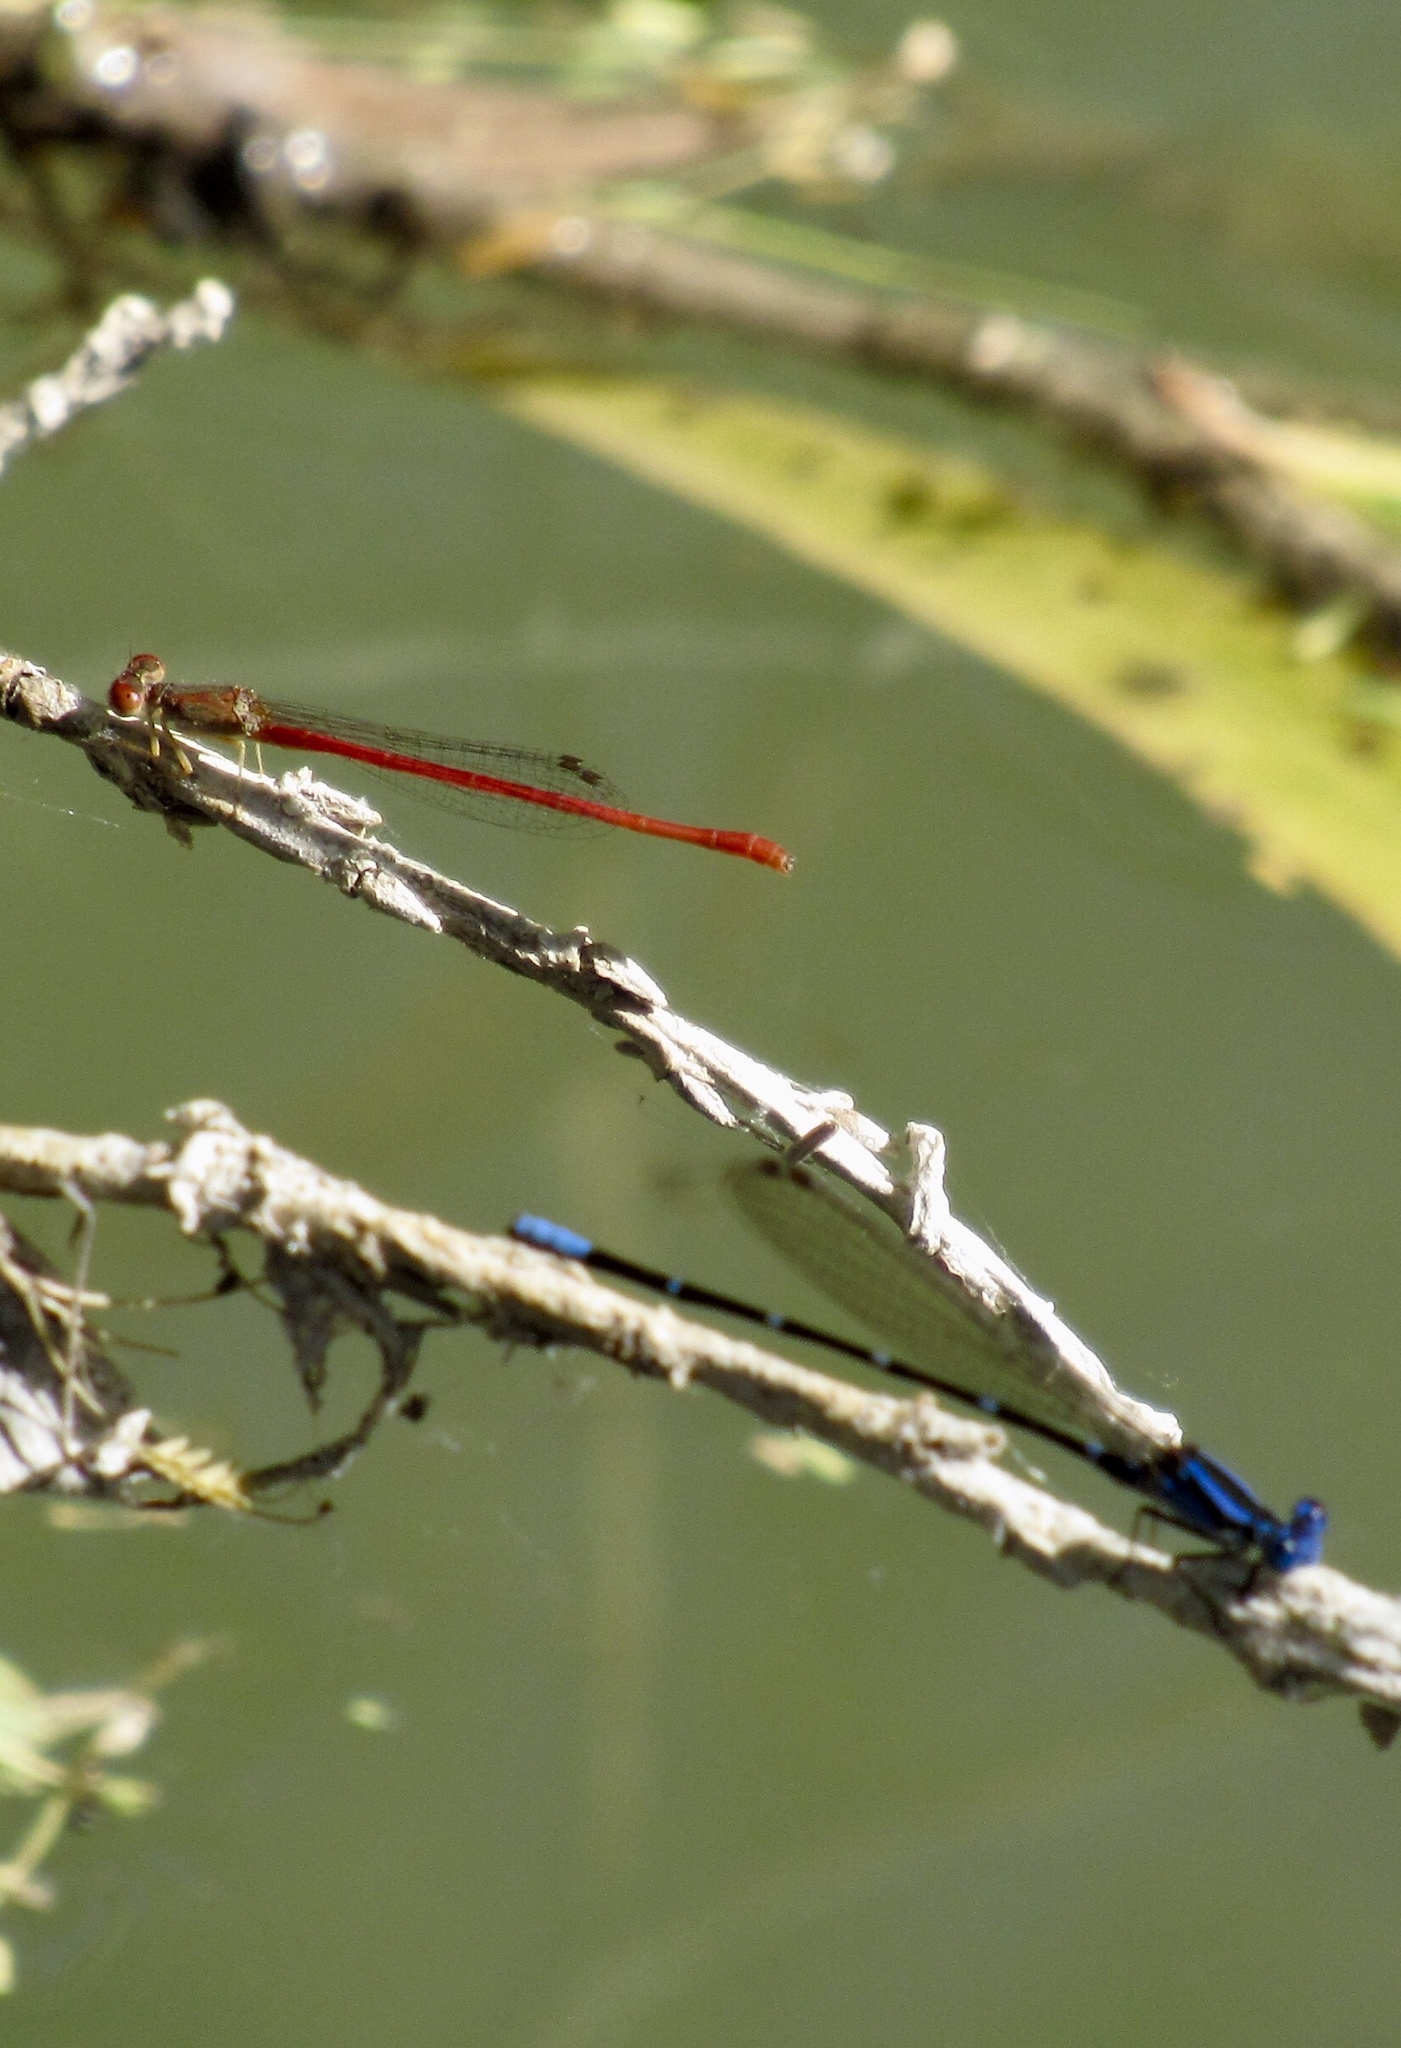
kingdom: Animalia
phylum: Arthropoda
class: Insecta
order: Odonata
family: Coenagrionidae
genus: Argia
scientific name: Argia sedula
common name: Blue-ringed dancer
